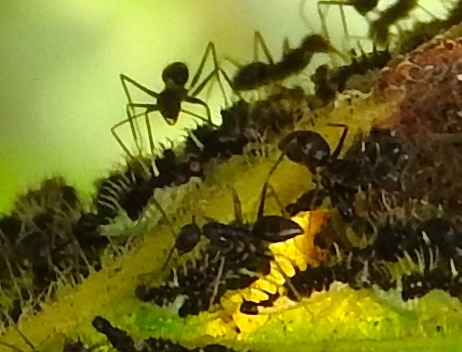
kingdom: Animalia
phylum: Arthropoda
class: Insecta
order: Hymenoptera
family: Formicidae
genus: Paratrechina
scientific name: Paratrechina longicornis
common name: Longhorned crazy ant
